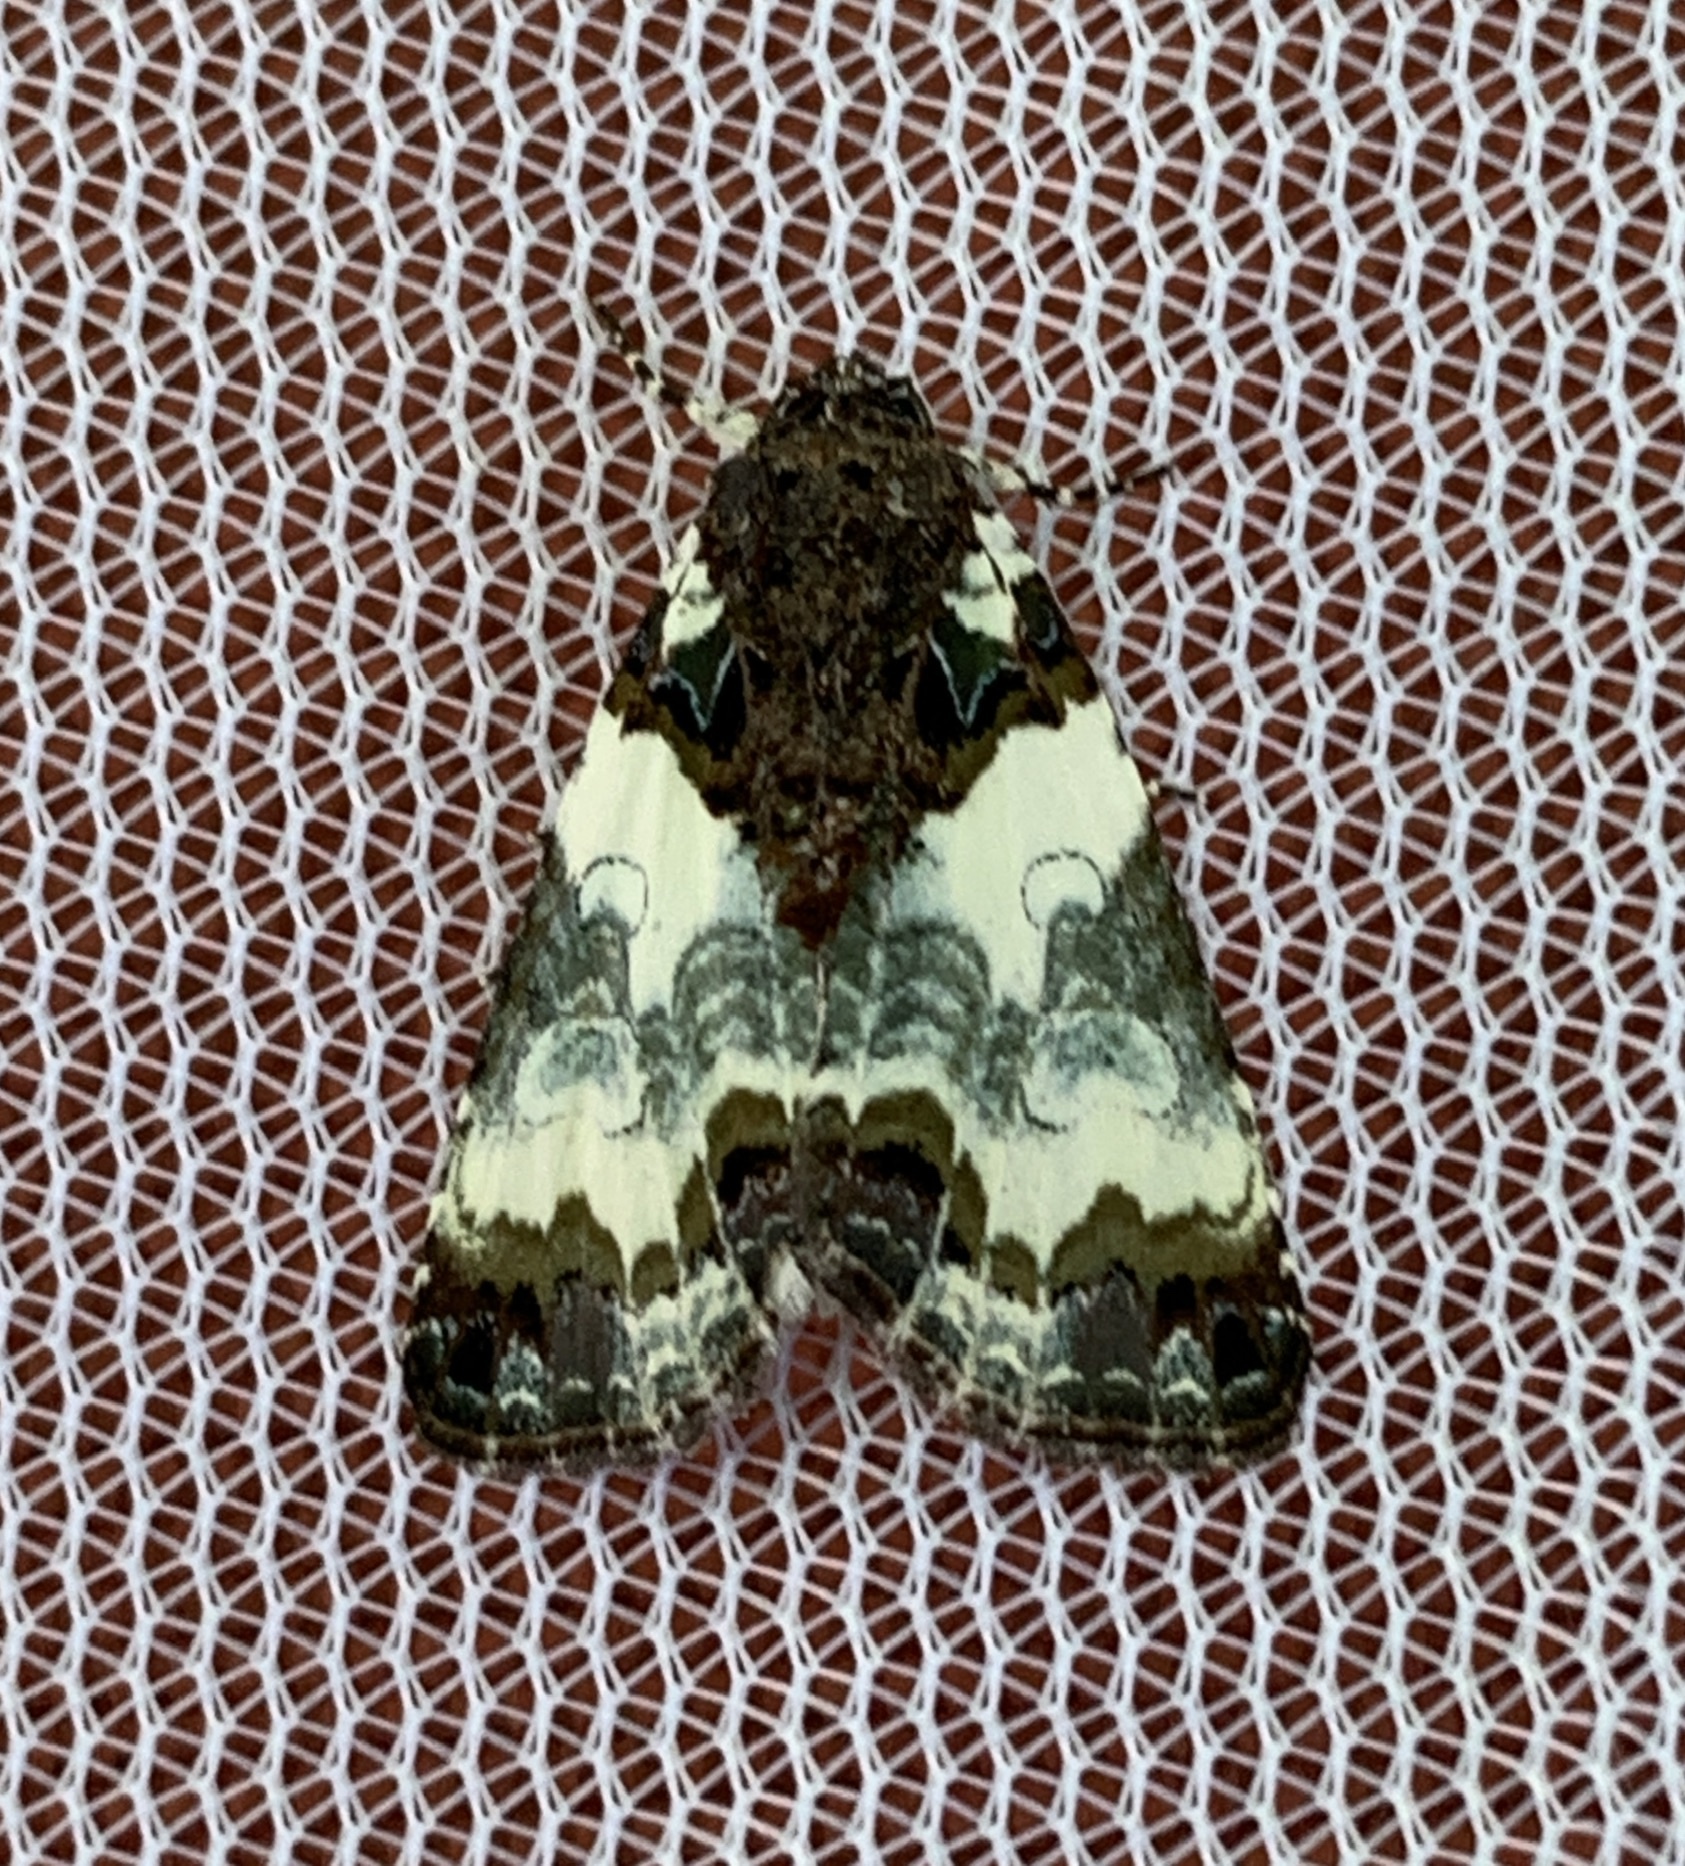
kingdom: Animalia
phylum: Arthropoda
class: Insecta
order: Lepidoptera
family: Noctuidae
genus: Cerma
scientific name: Cerma cerintha
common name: Tufted bird-dropping moth
